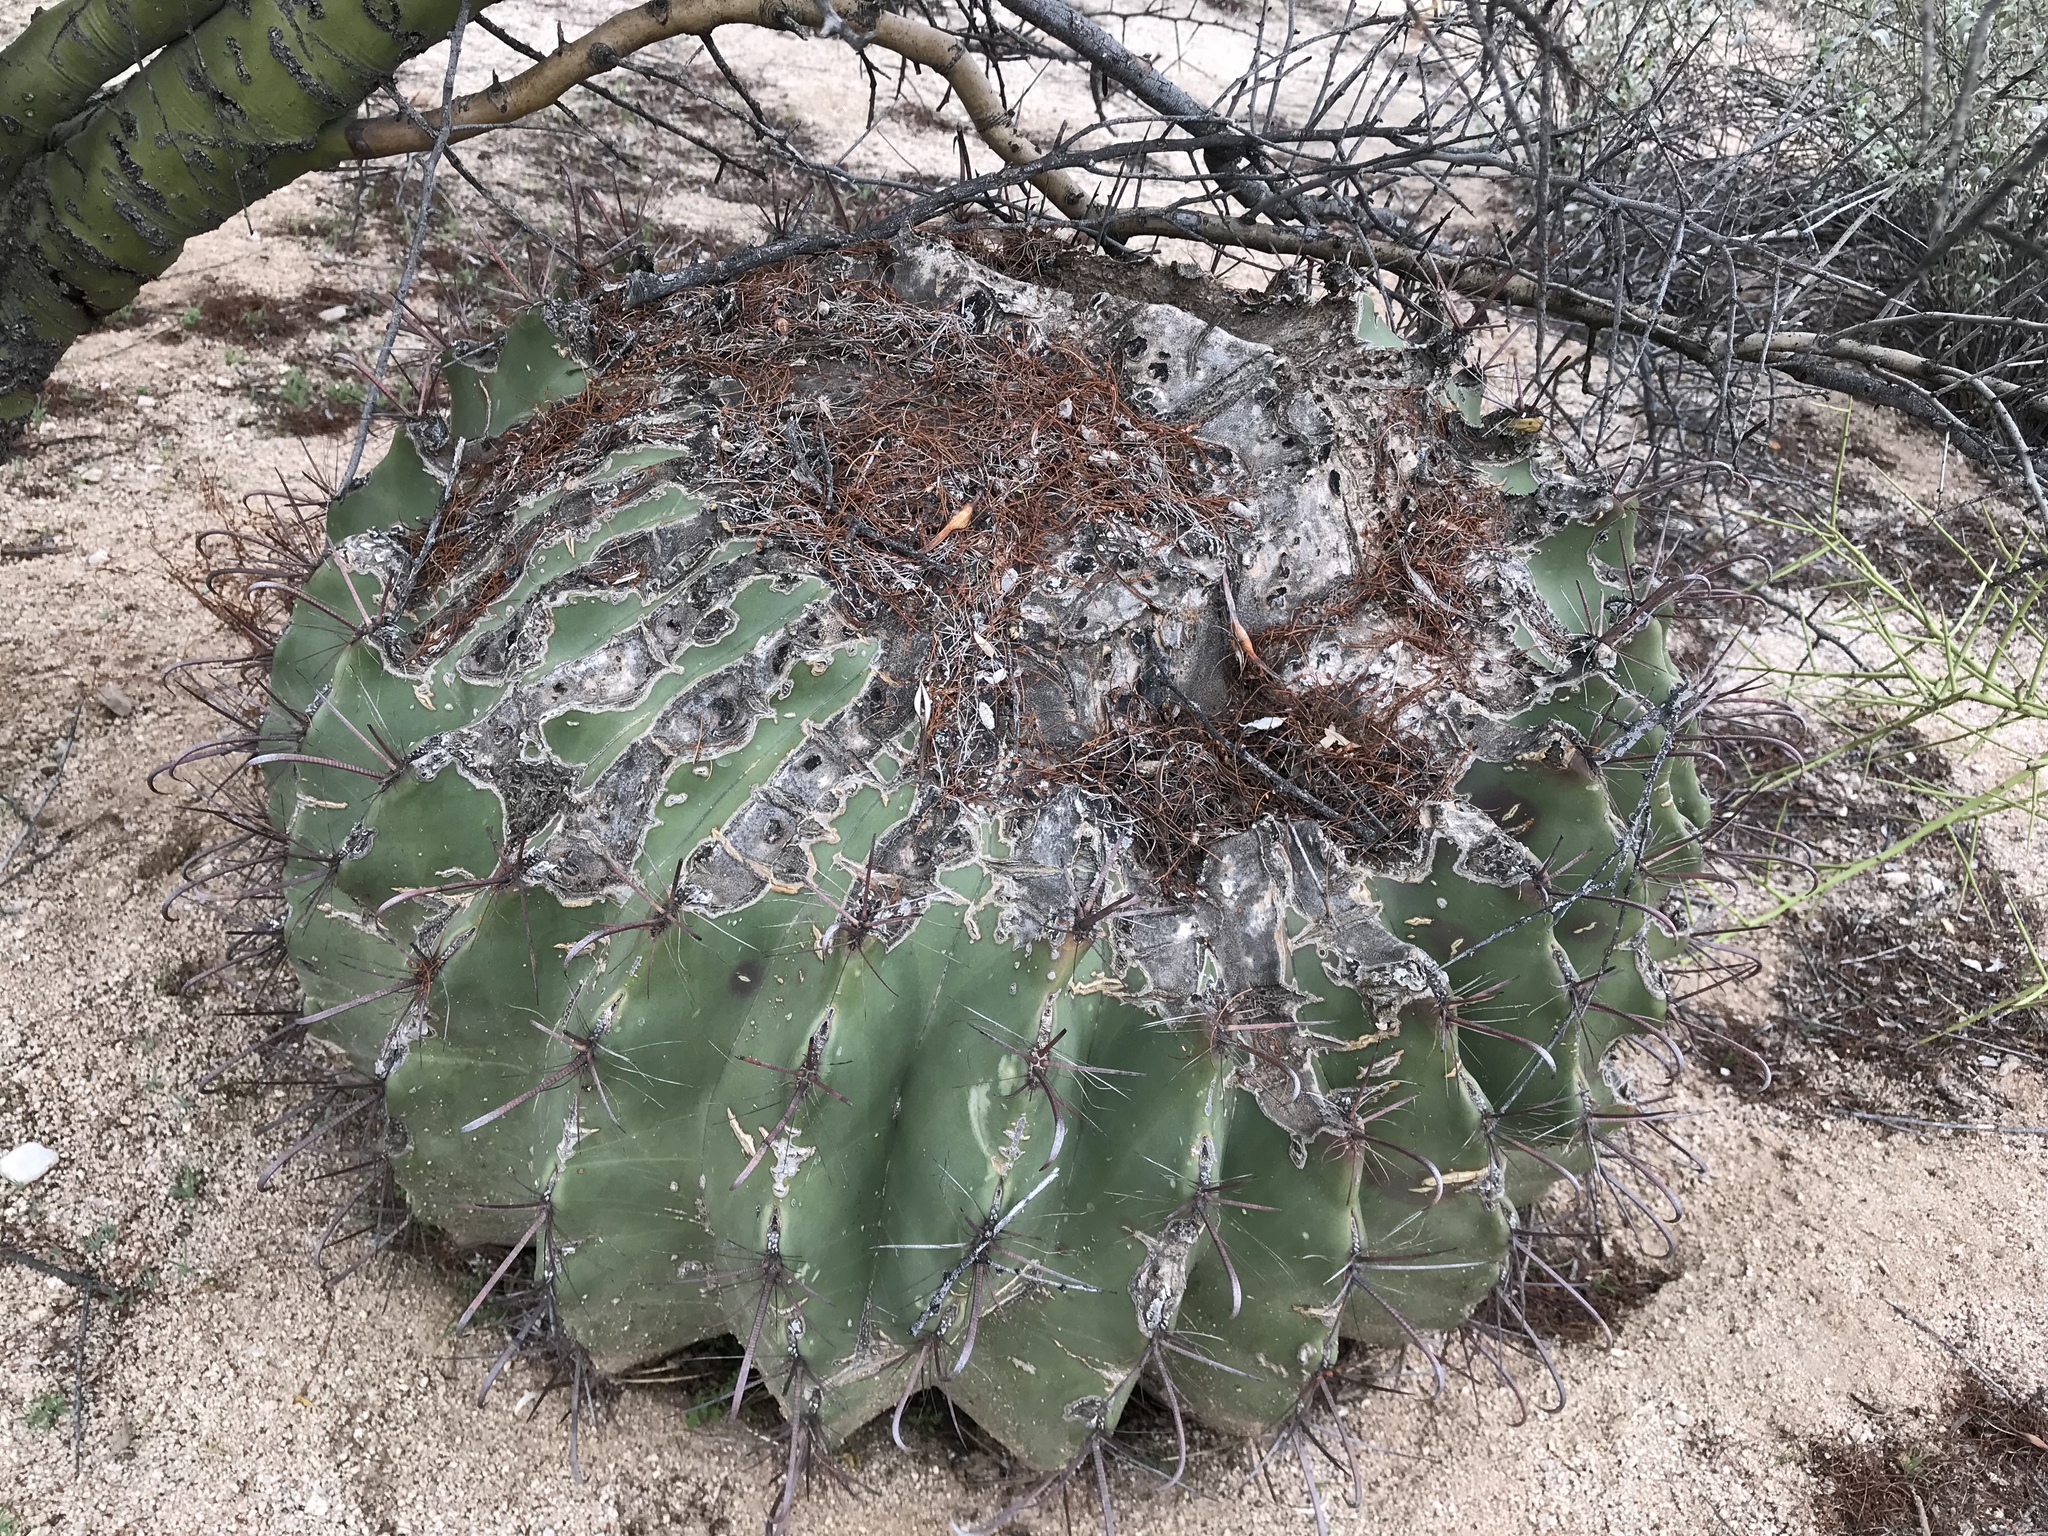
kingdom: Plantae
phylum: Tracheophyta
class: Magnoliopsida
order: Caryophyllales
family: Cactaceae
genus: Ferocactus
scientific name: Ferocactus wislizeni
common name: Candy barrel cactus
